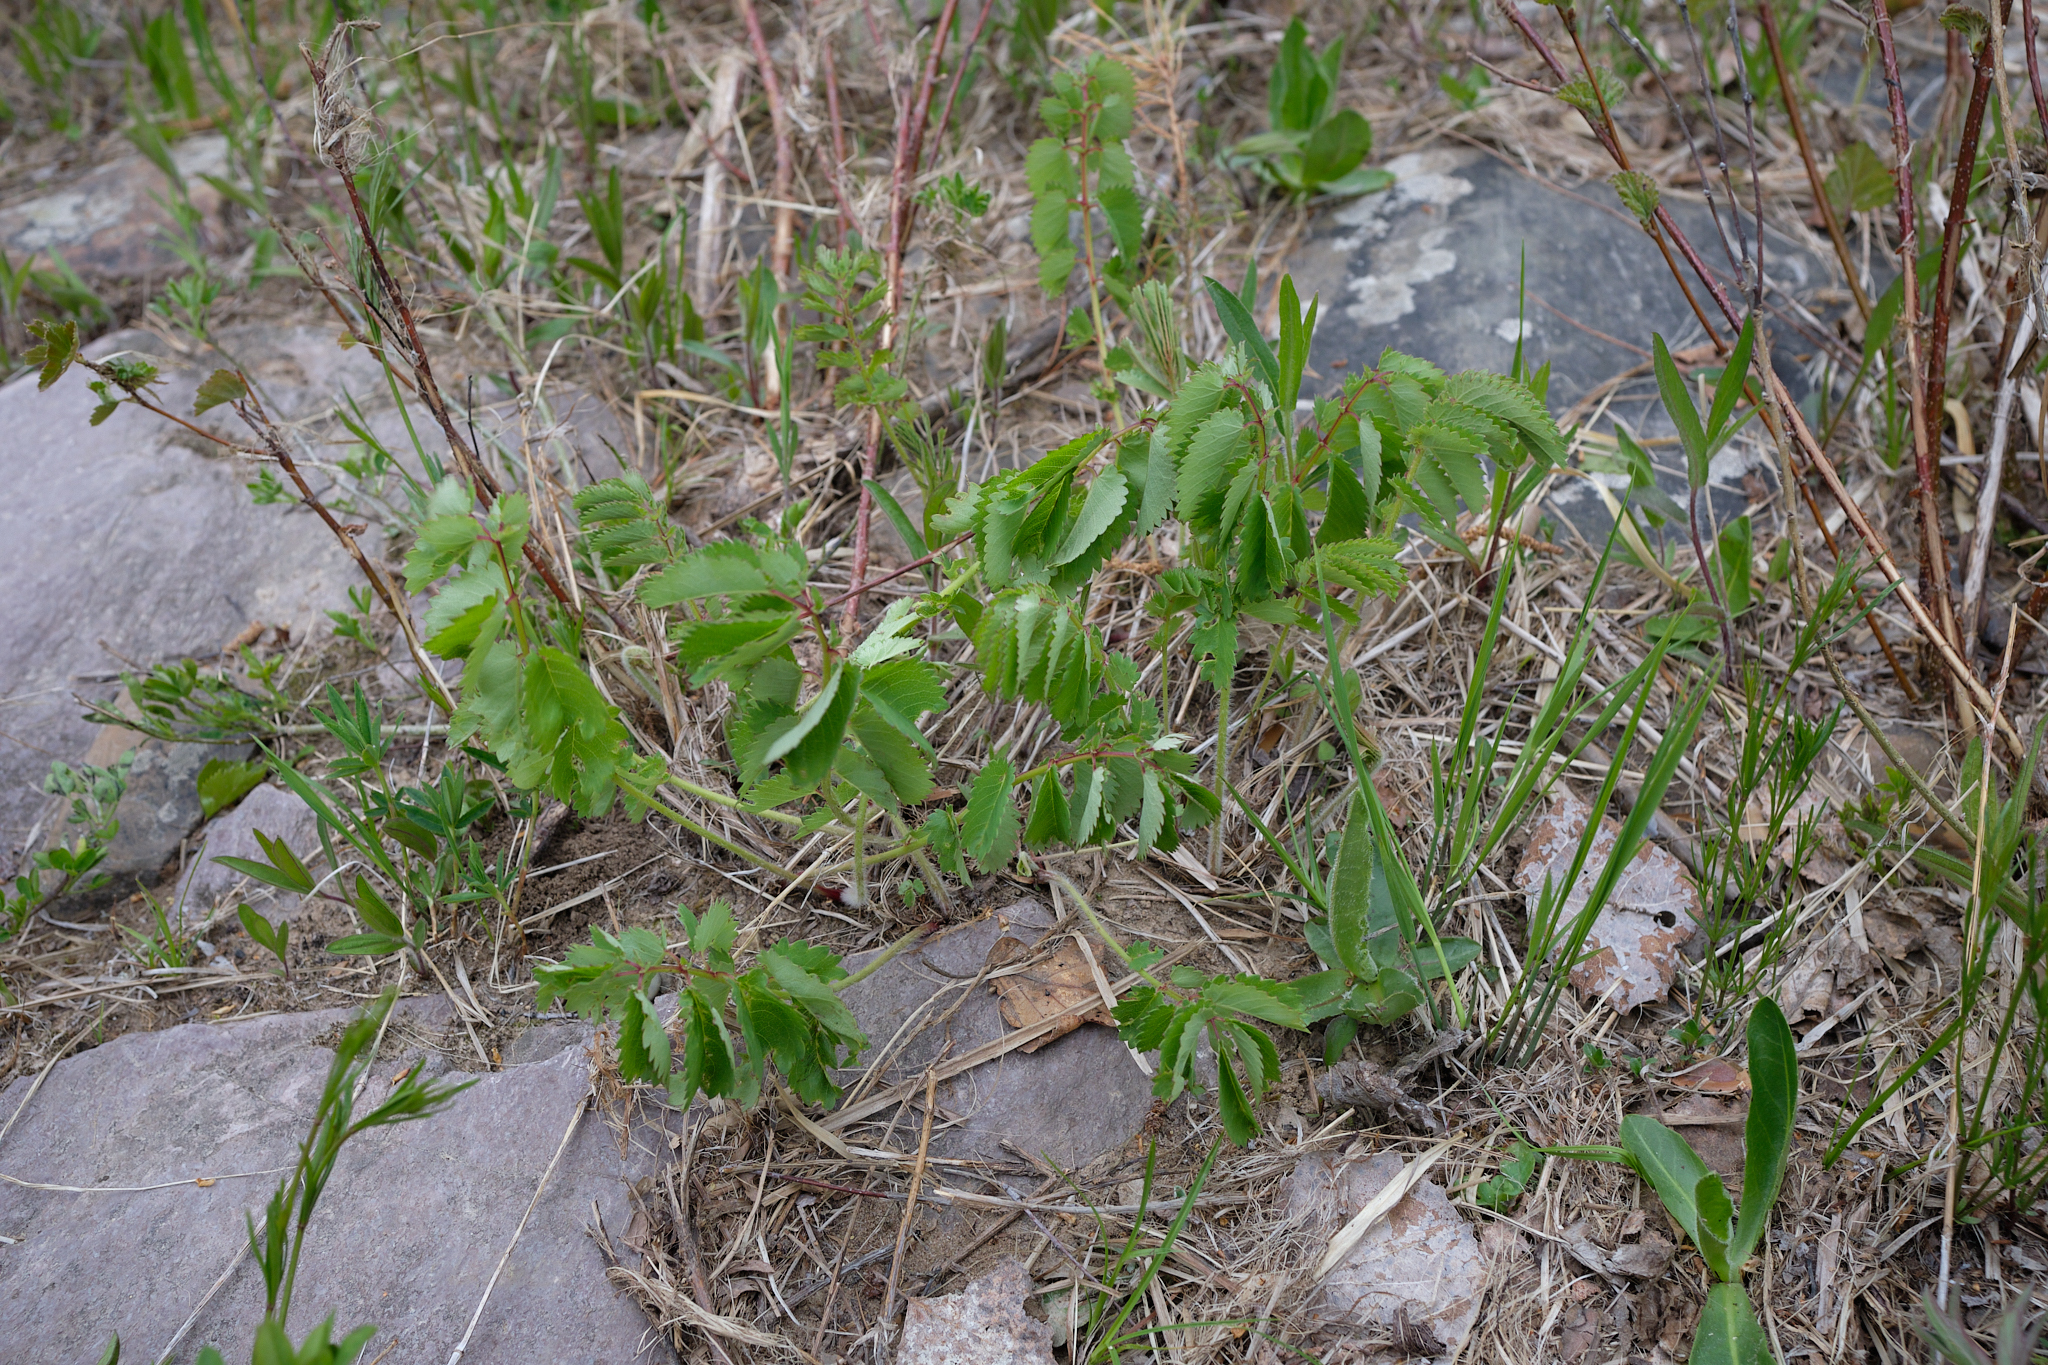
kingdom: Plantae
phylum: Tracheophyta
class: Magnoliopsida
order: Rosales
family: Rosaceae
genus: Sanguisorba
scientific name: Sanguisorba officinalis
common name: Great burnet
